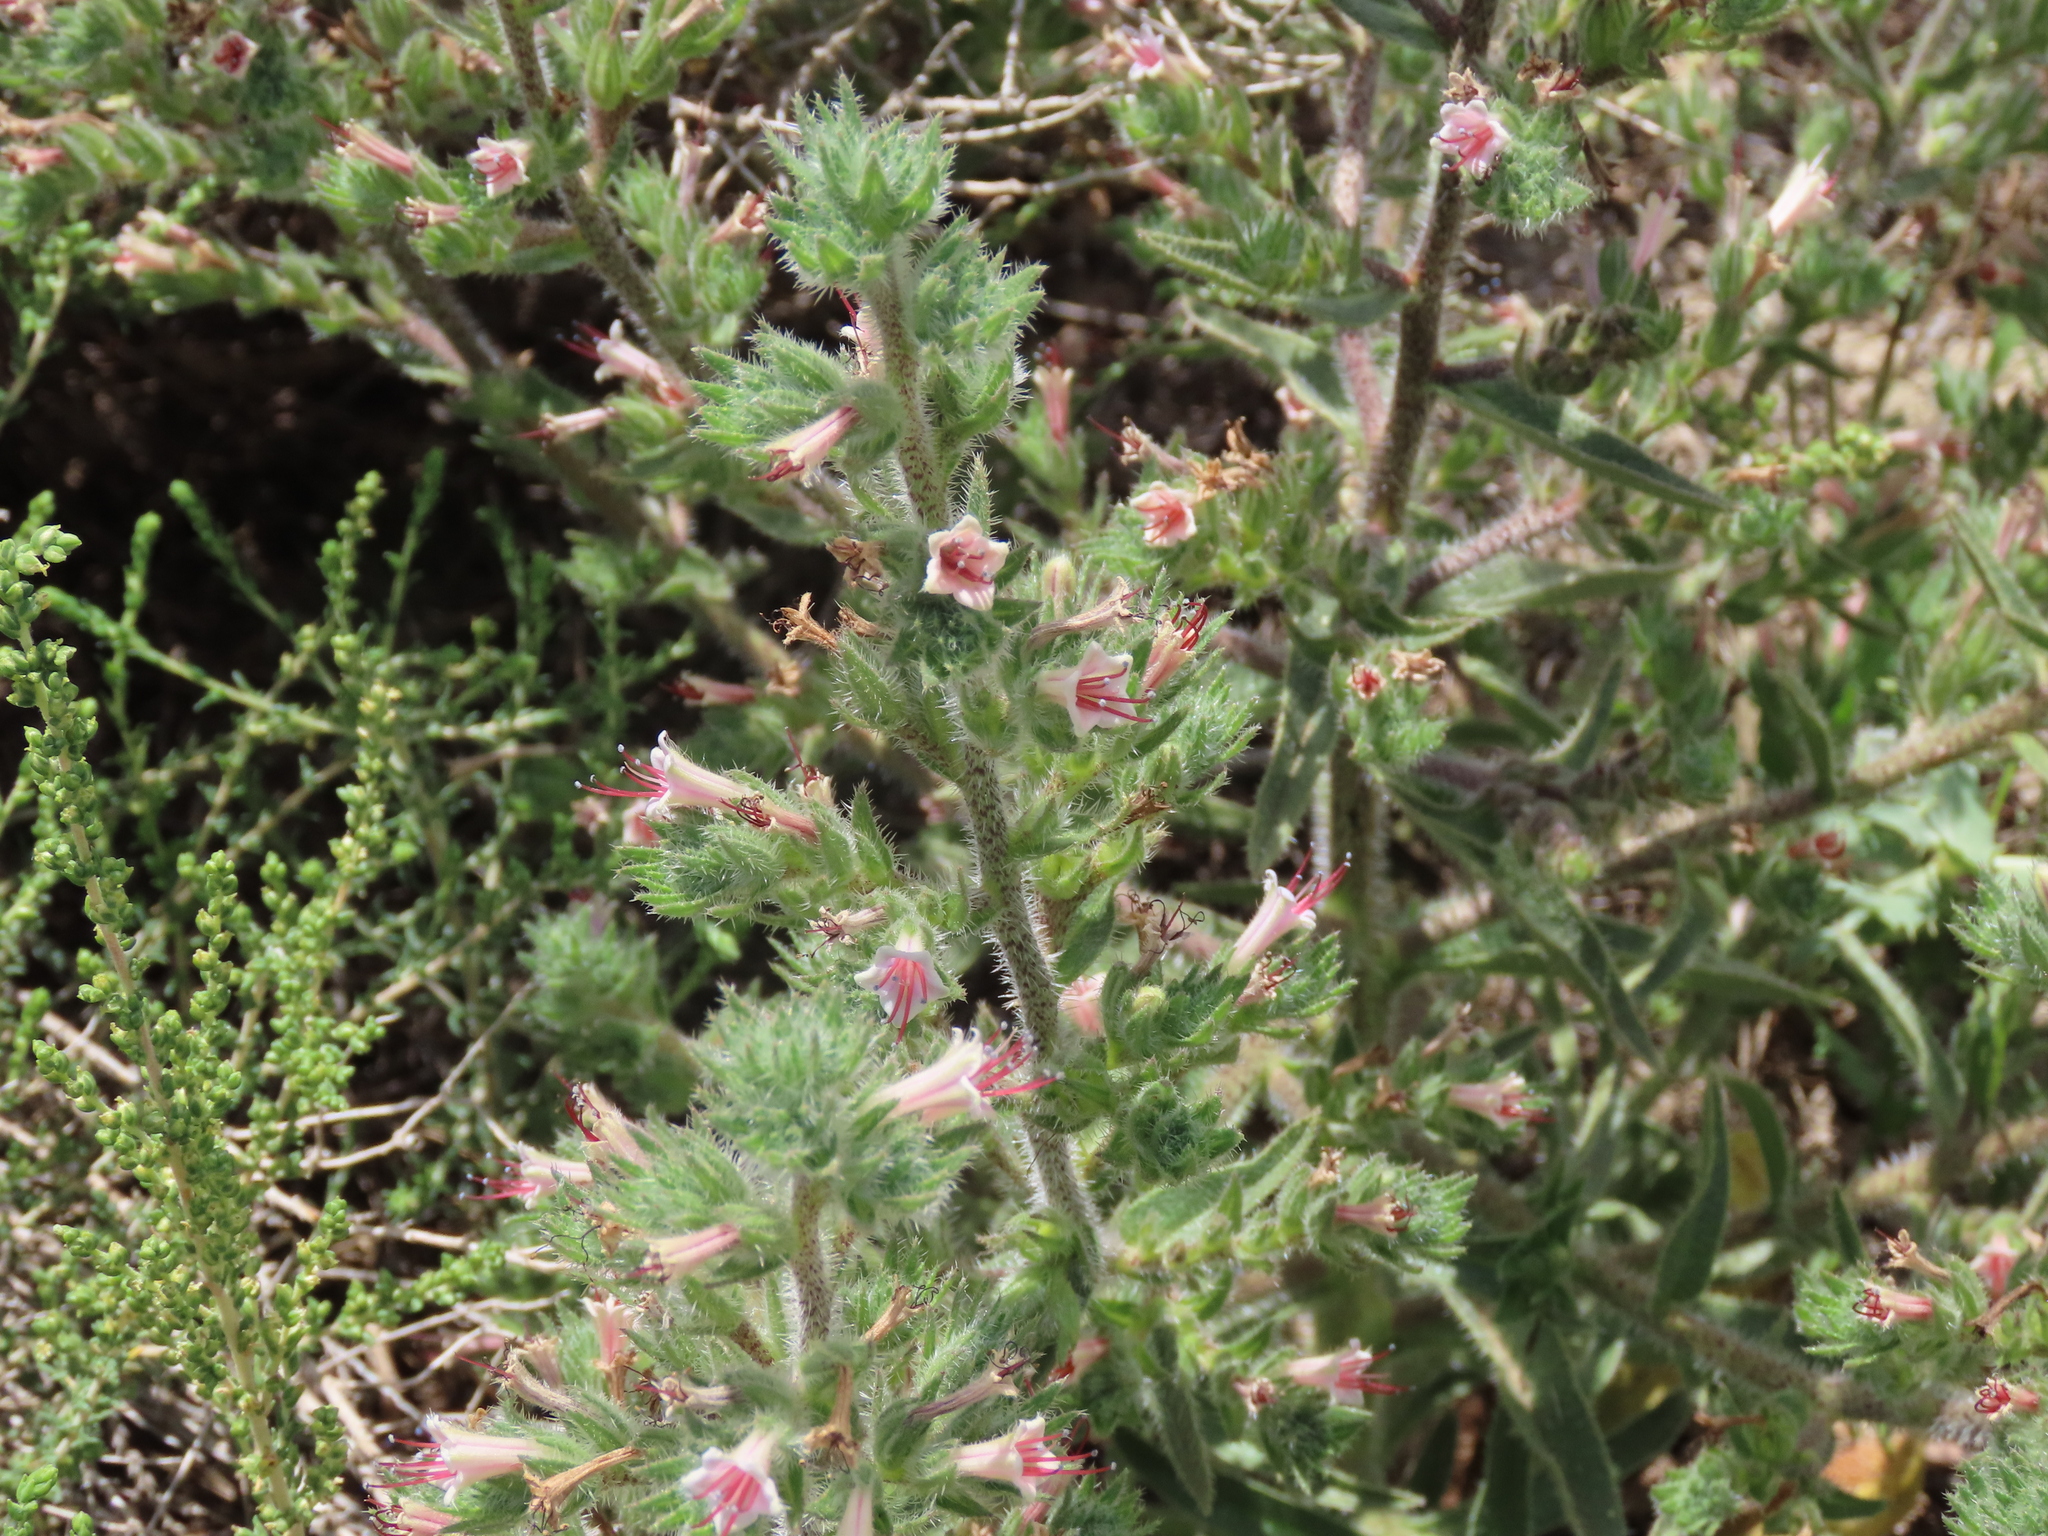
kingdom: Plantae
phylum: Tracheophyta
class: Magnoliopsida
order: Boraginales
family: Boraginaceae
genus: Echium
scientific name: Echium asperrimum
